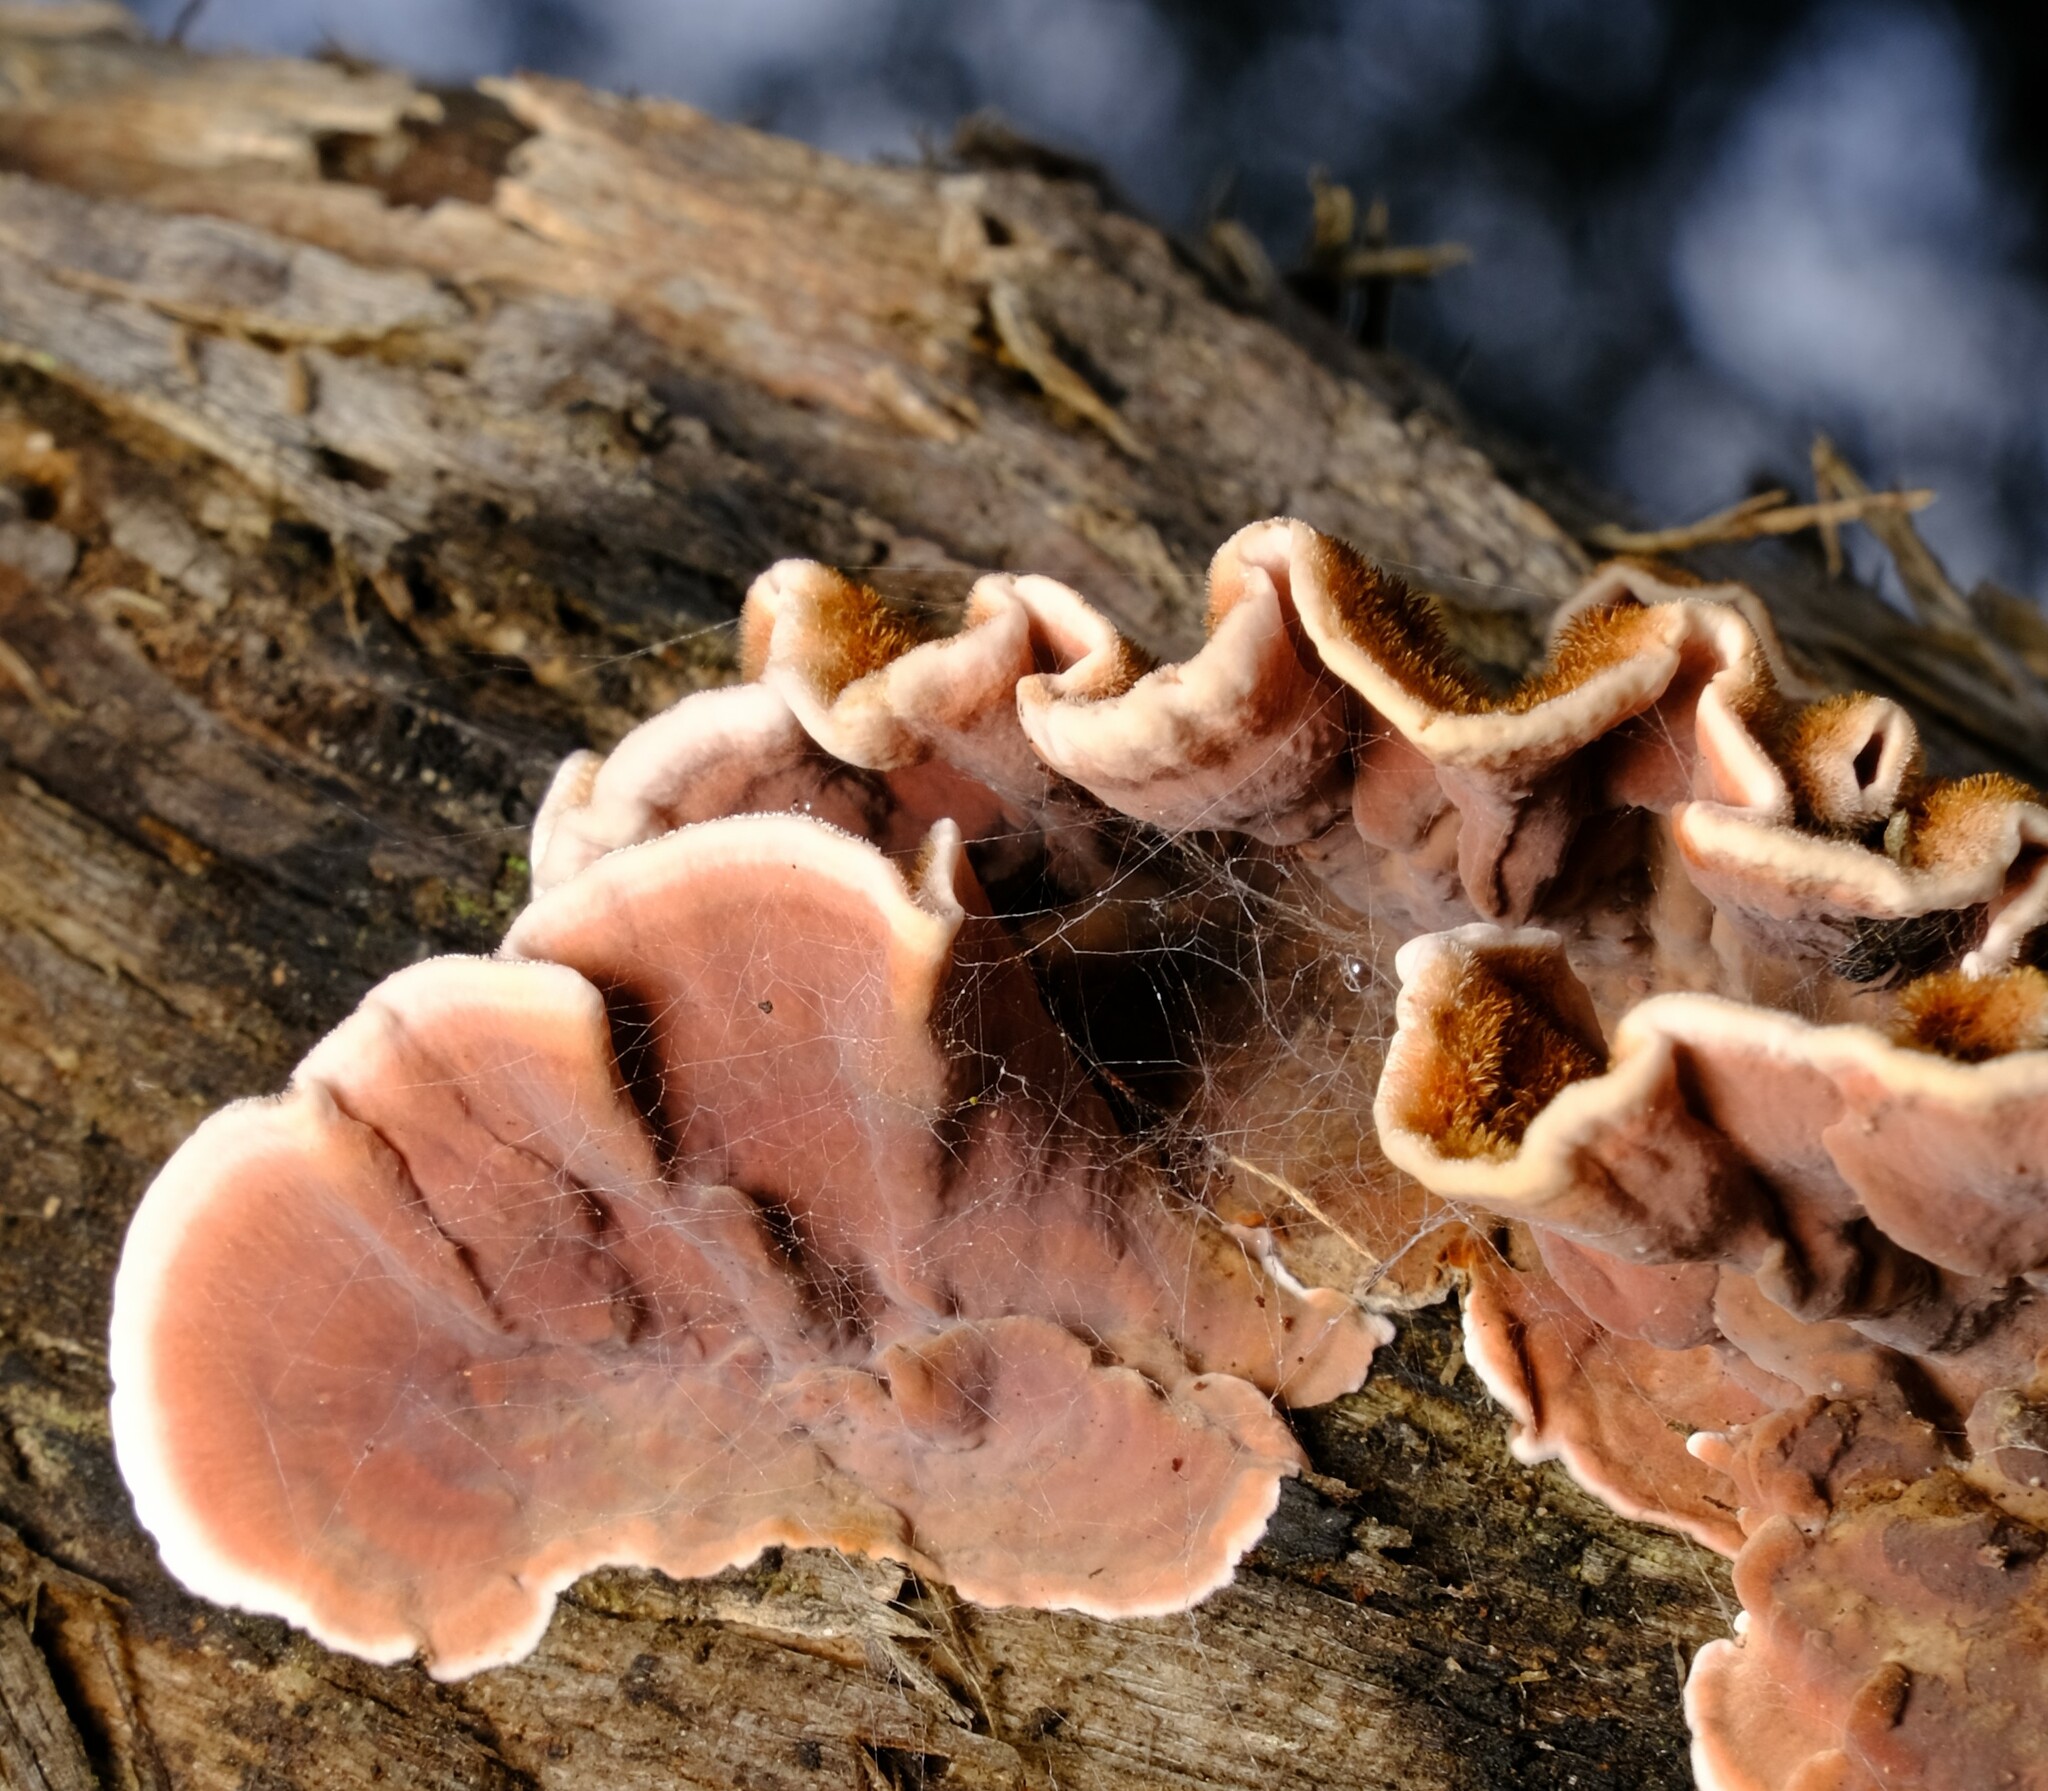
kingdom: Fungi
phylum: Basidiomycota
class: Agaricomycetes
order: Russulales
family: Stereaceae
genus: Xylobolus
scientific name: Xylobolus illudens
